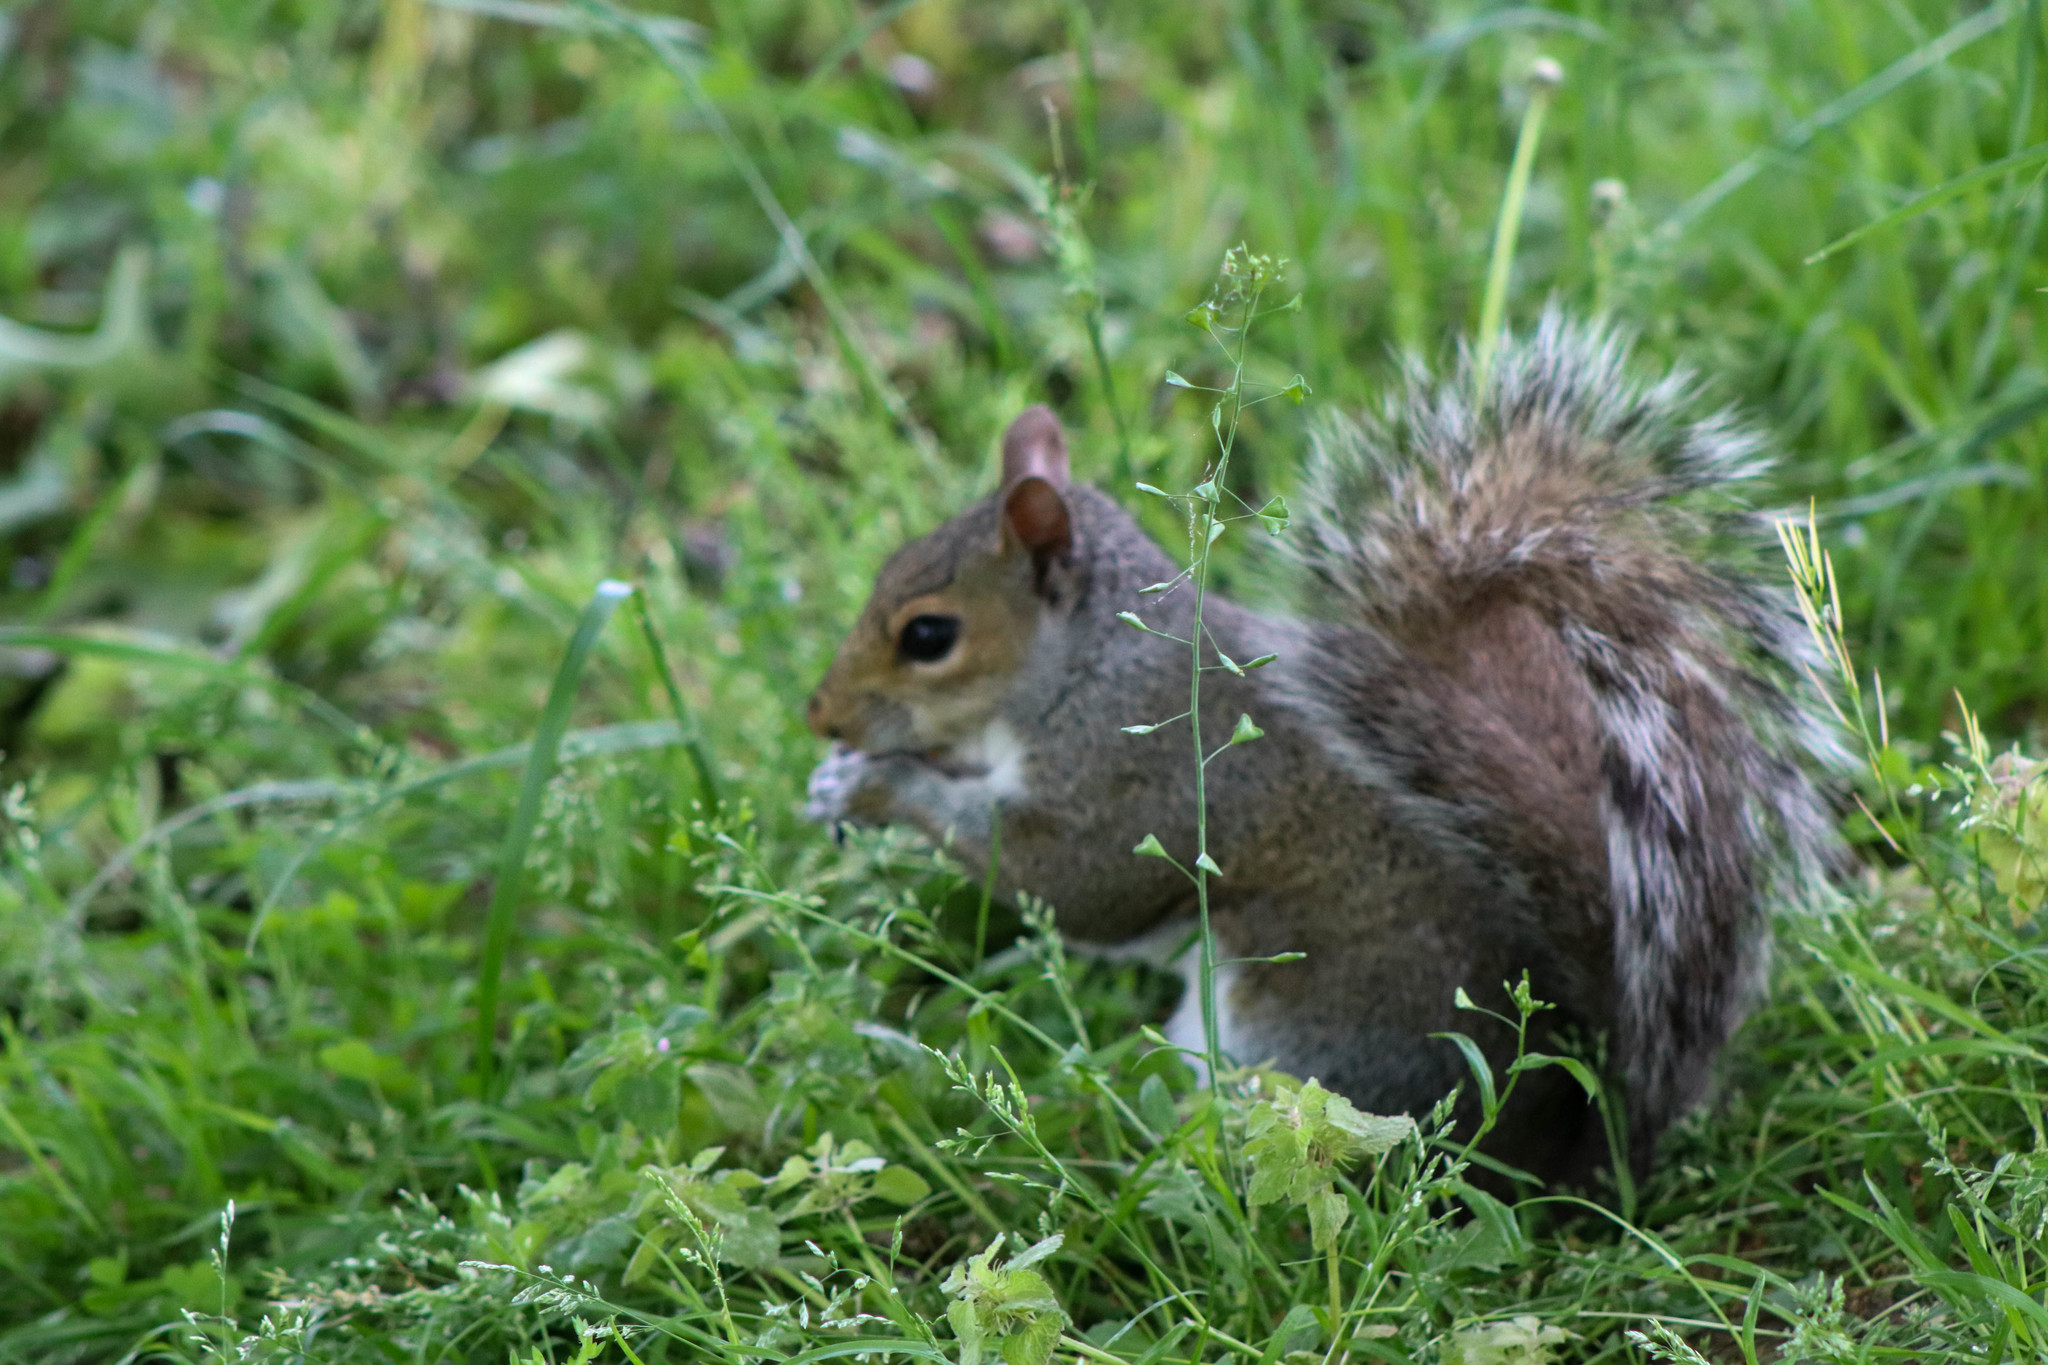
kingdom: Animalia
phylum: Chordata
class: Mammalia
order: Rodentia
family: Sciuridae
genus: Sciurus
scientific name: Sciurus carolinensis
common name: Eastern gray squirrel
